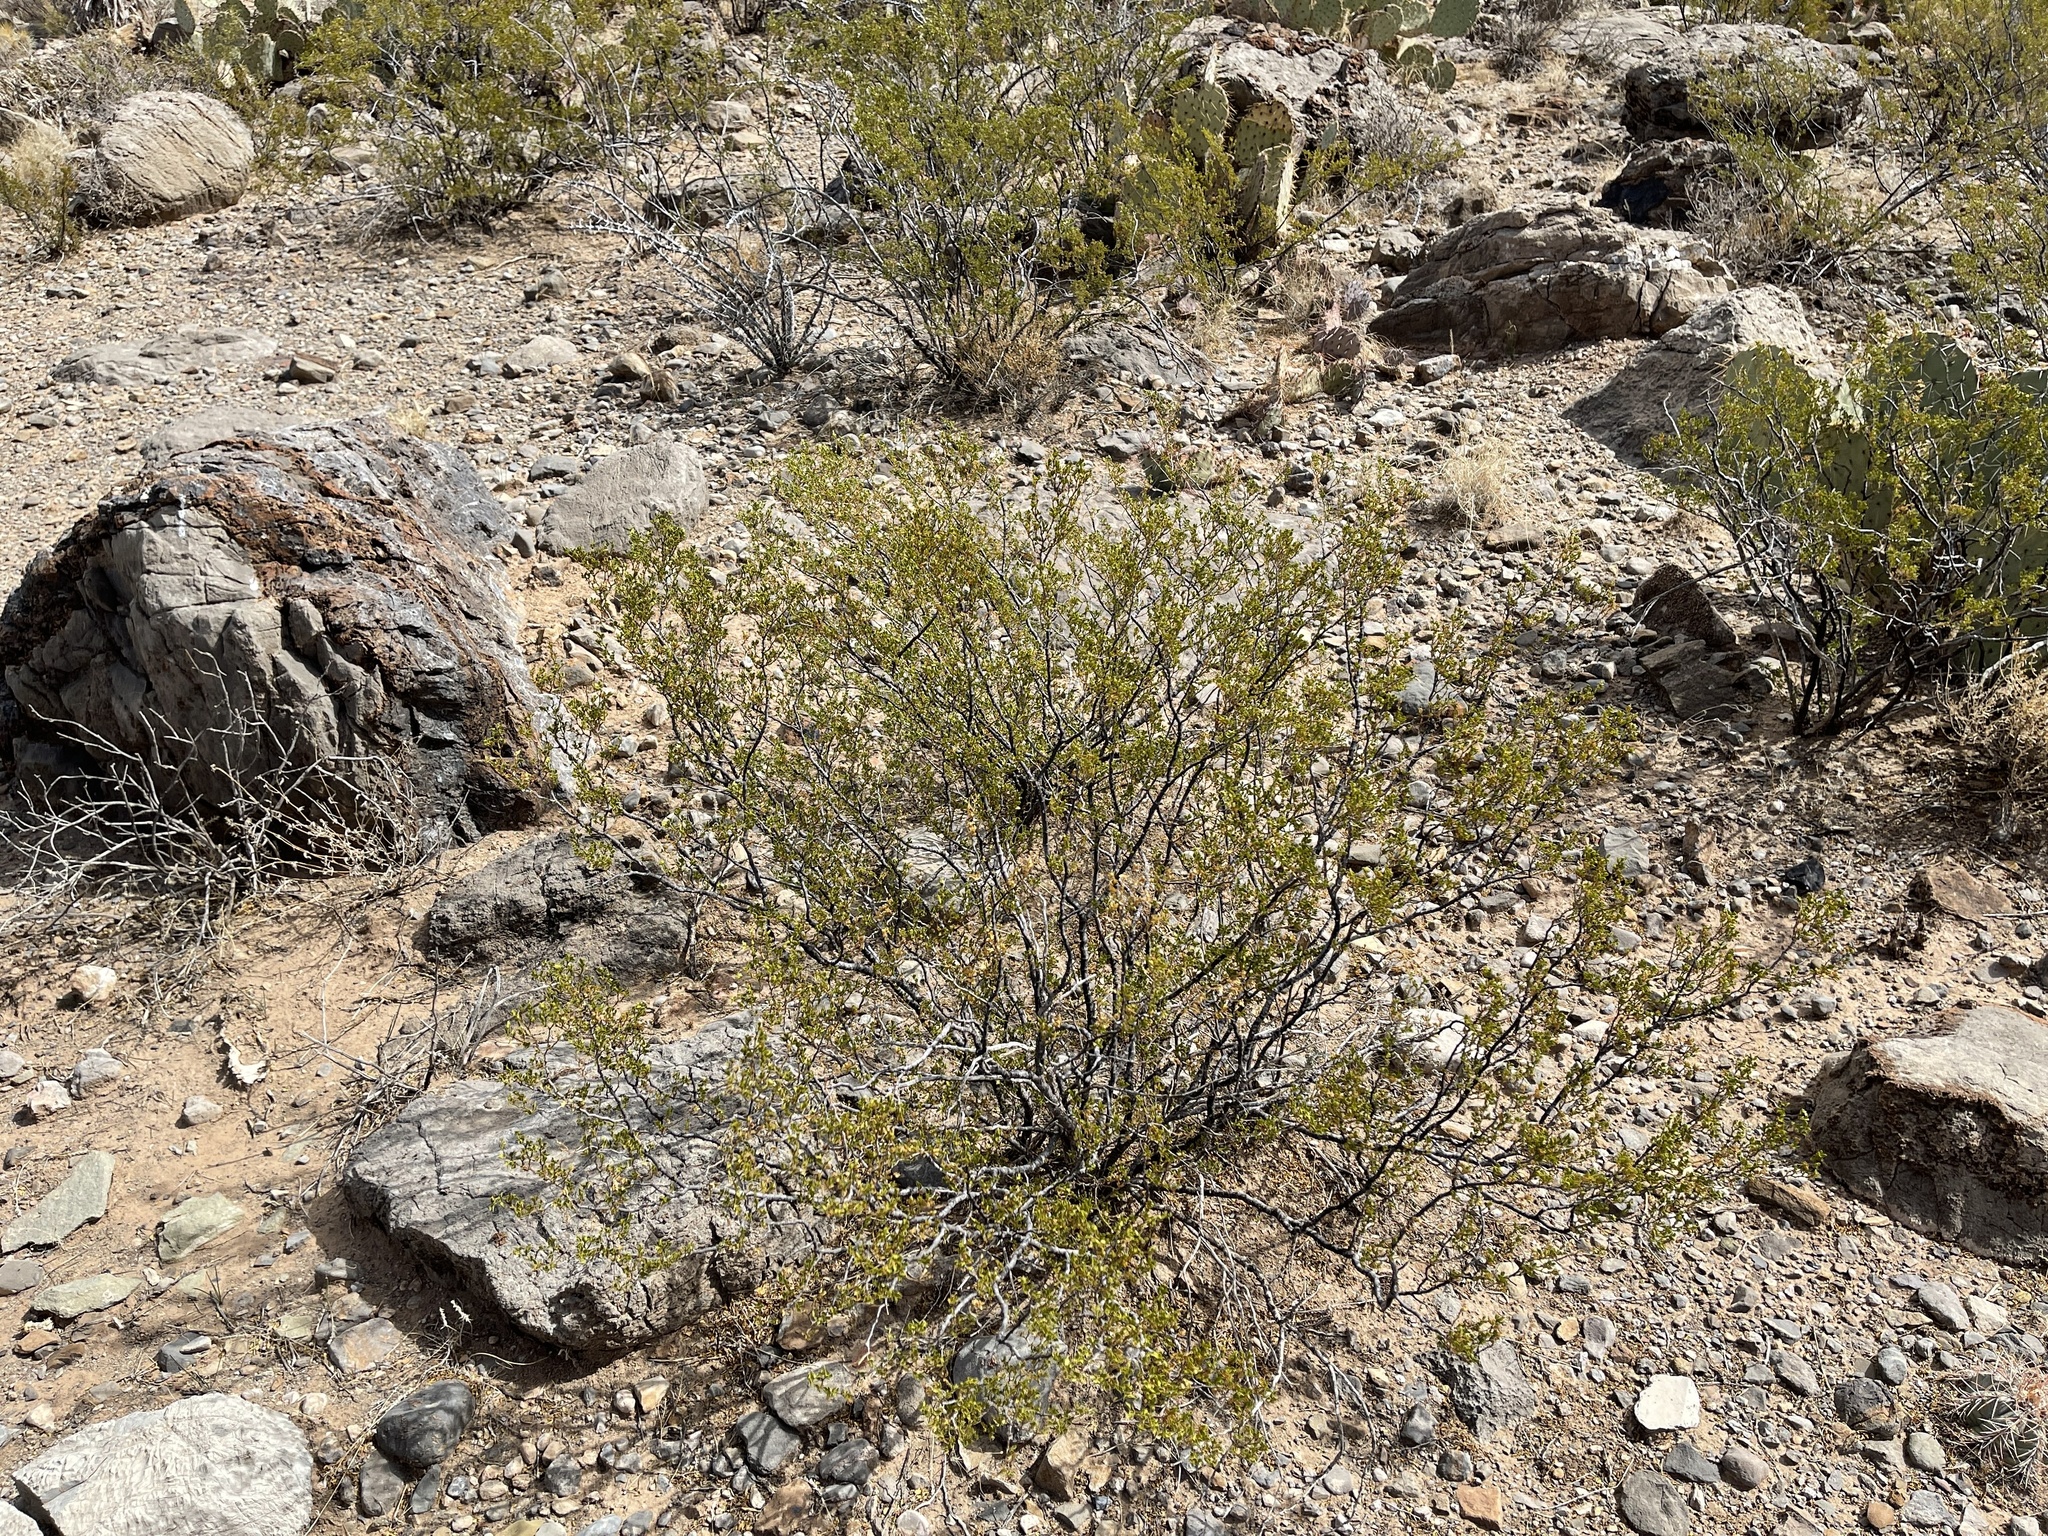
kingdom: Plantae
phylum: Tracheophyta
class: Magnoliopsida
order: Zygophyllales
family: Zygophyllaceae
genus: Larrea
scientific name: Larrea tridentata
